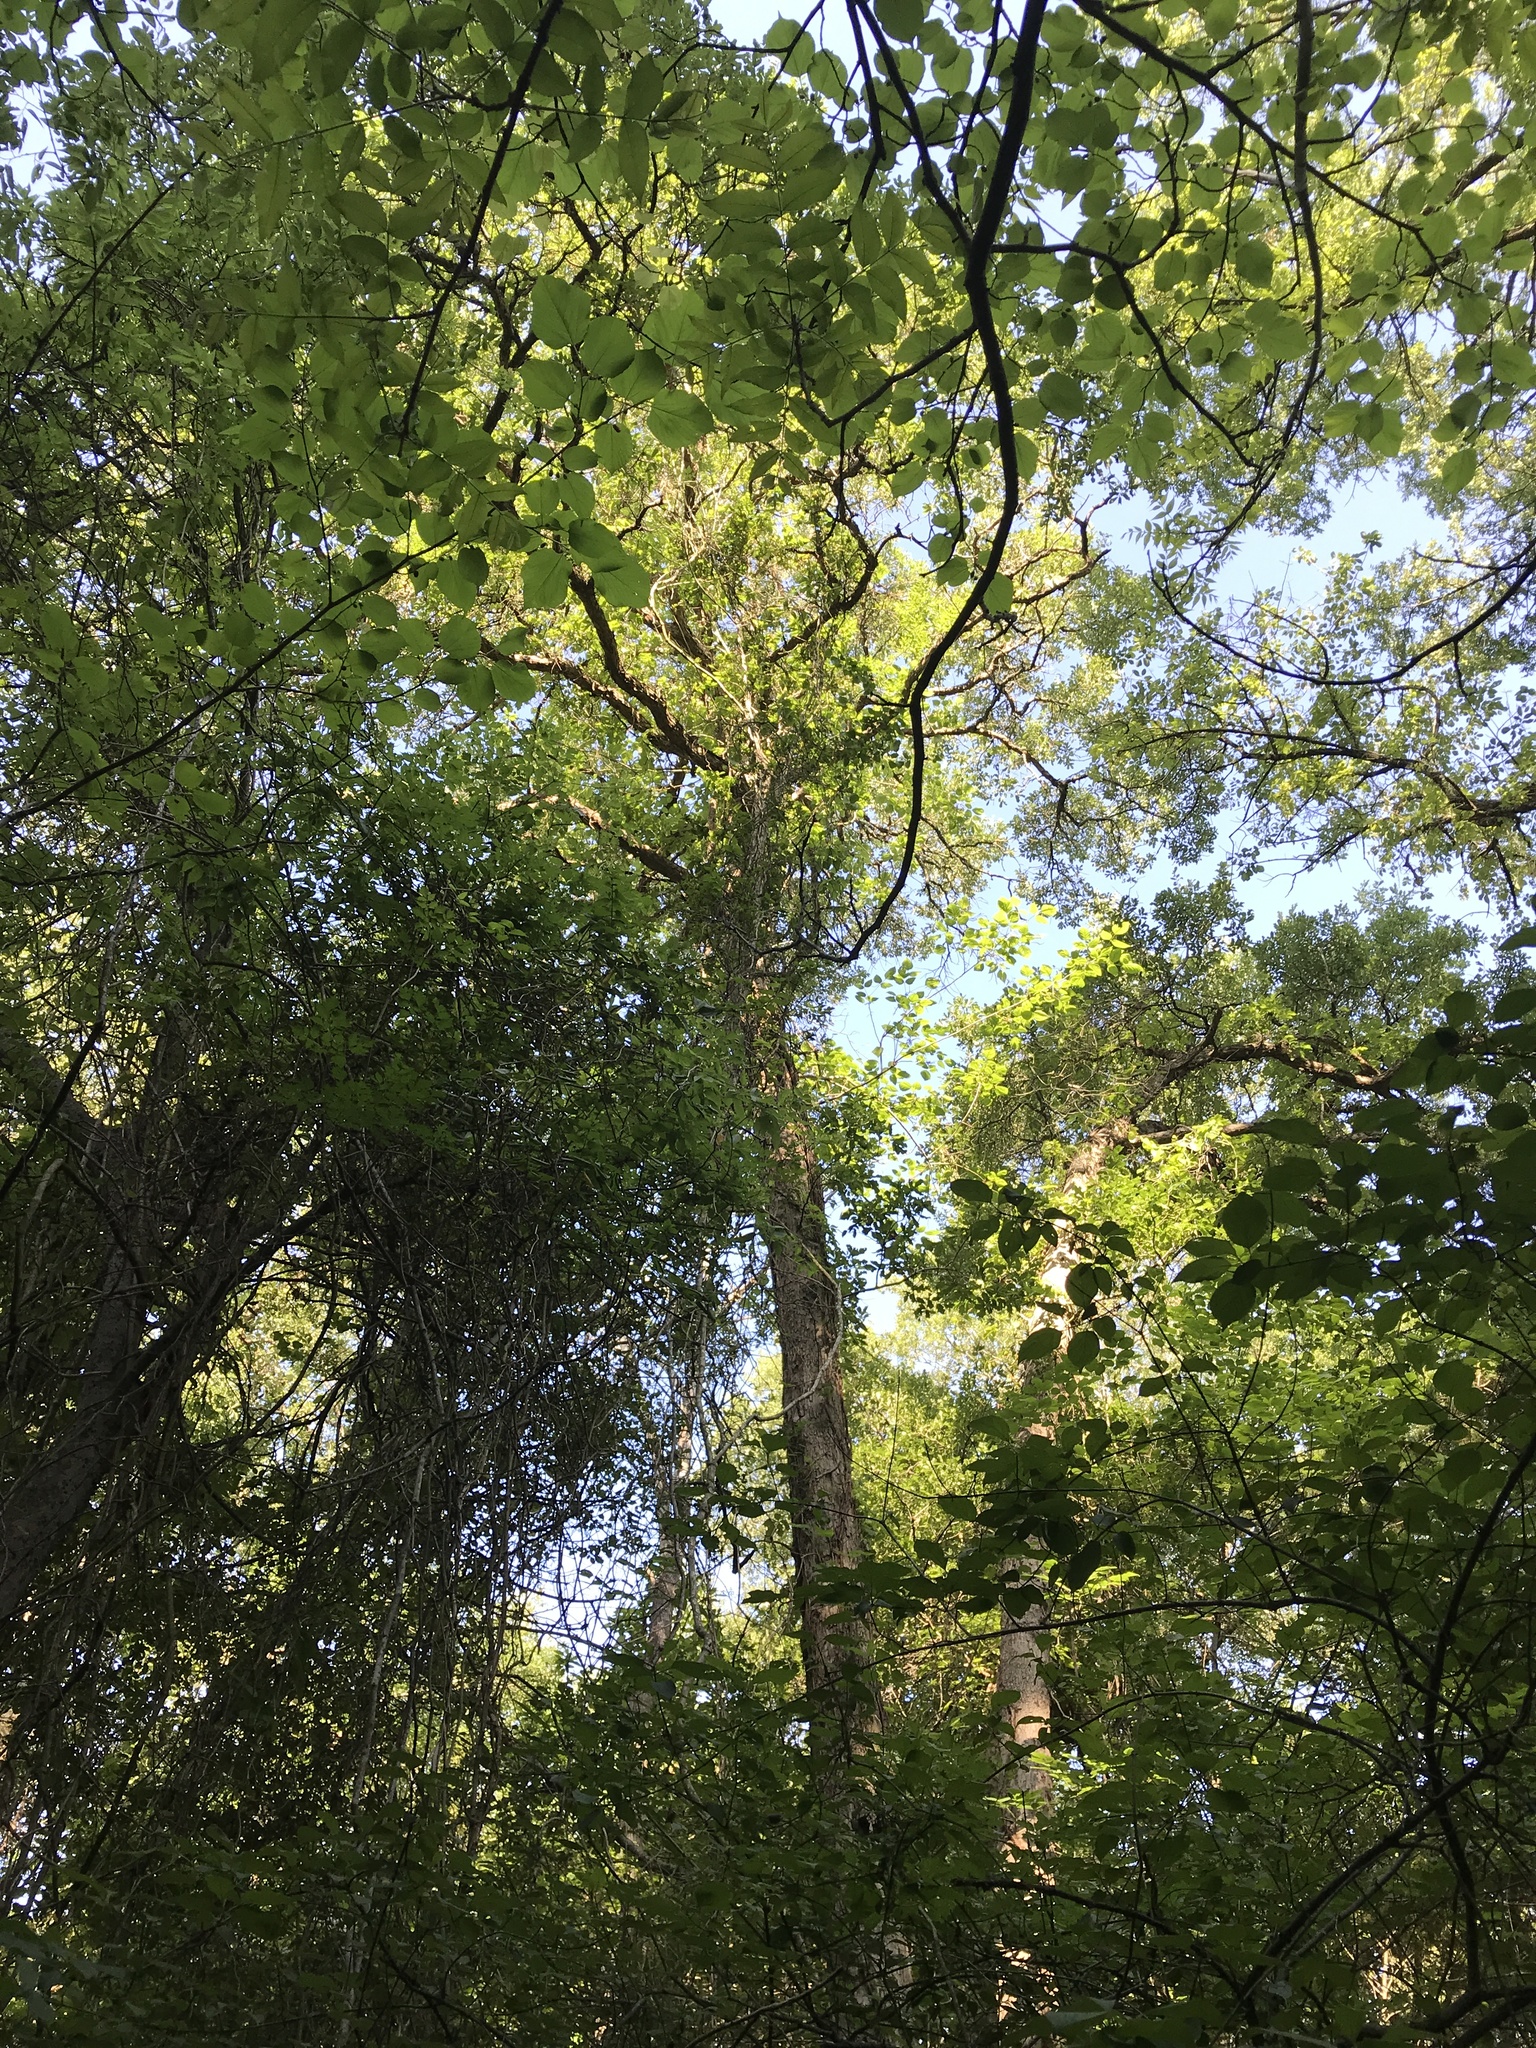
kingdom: Plantae
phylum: Tracheophyta
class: Magnoliopsida
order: Fagales
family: Fagaceae
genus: Quercus
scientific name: Quercus sinuata
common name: Durand oak
